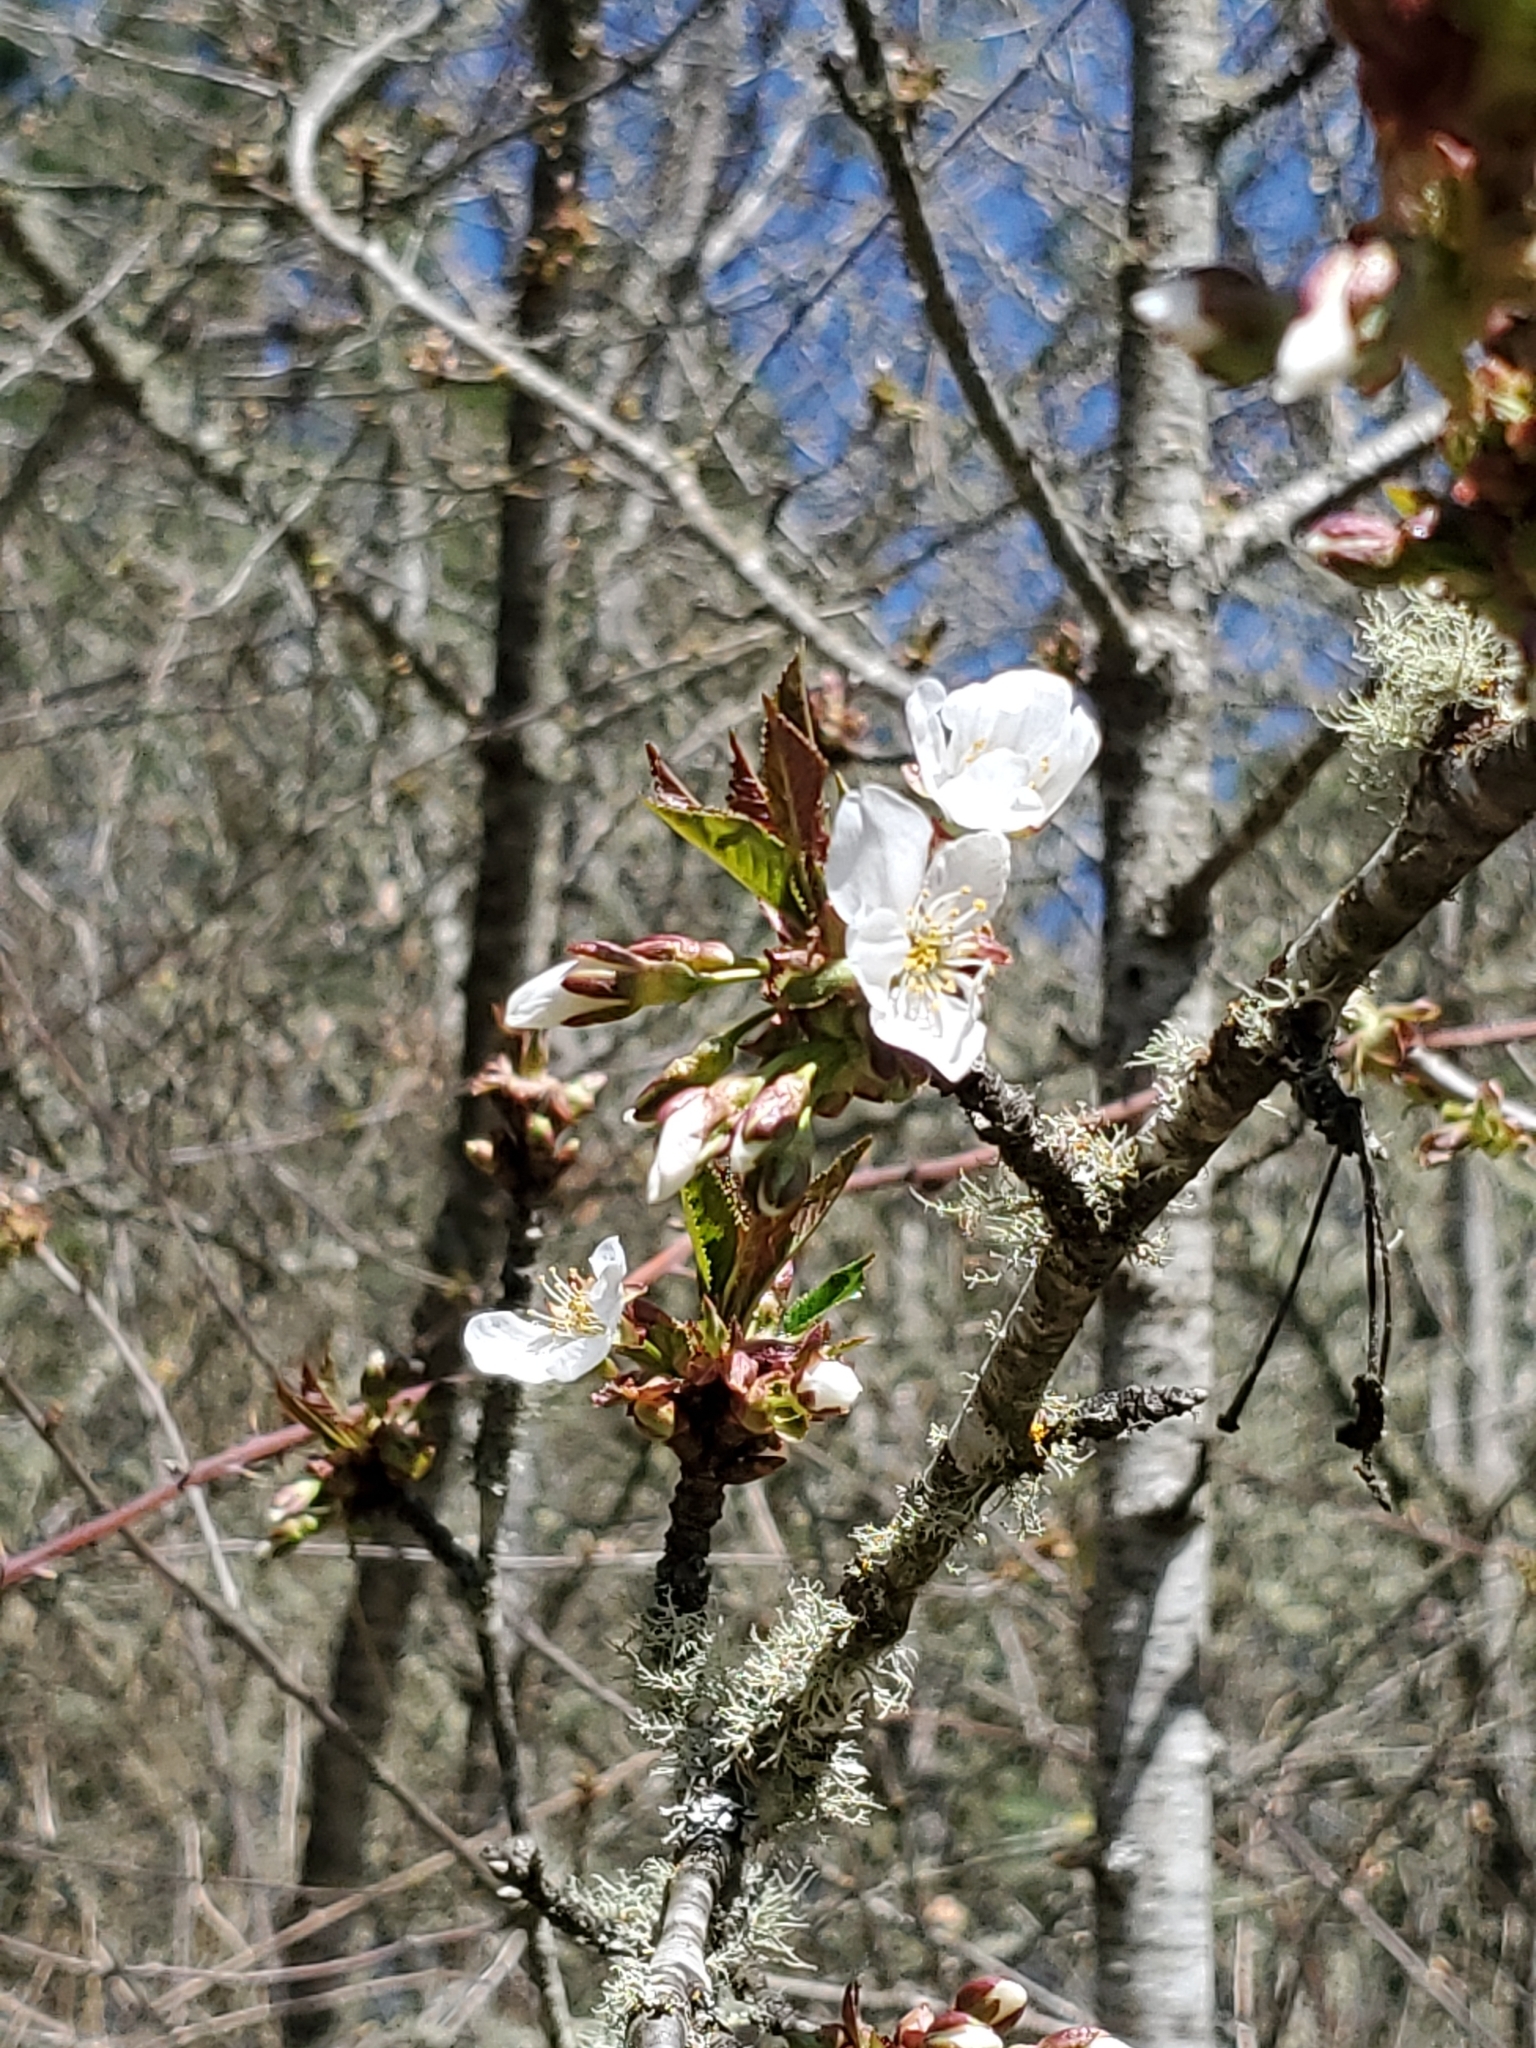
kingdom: Plantae
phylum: Tracheophyta
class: Magnoliopsida
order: Rosales
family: Rosaceae
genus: Prunus
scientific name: Prunus avium
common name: Sweet cherry
